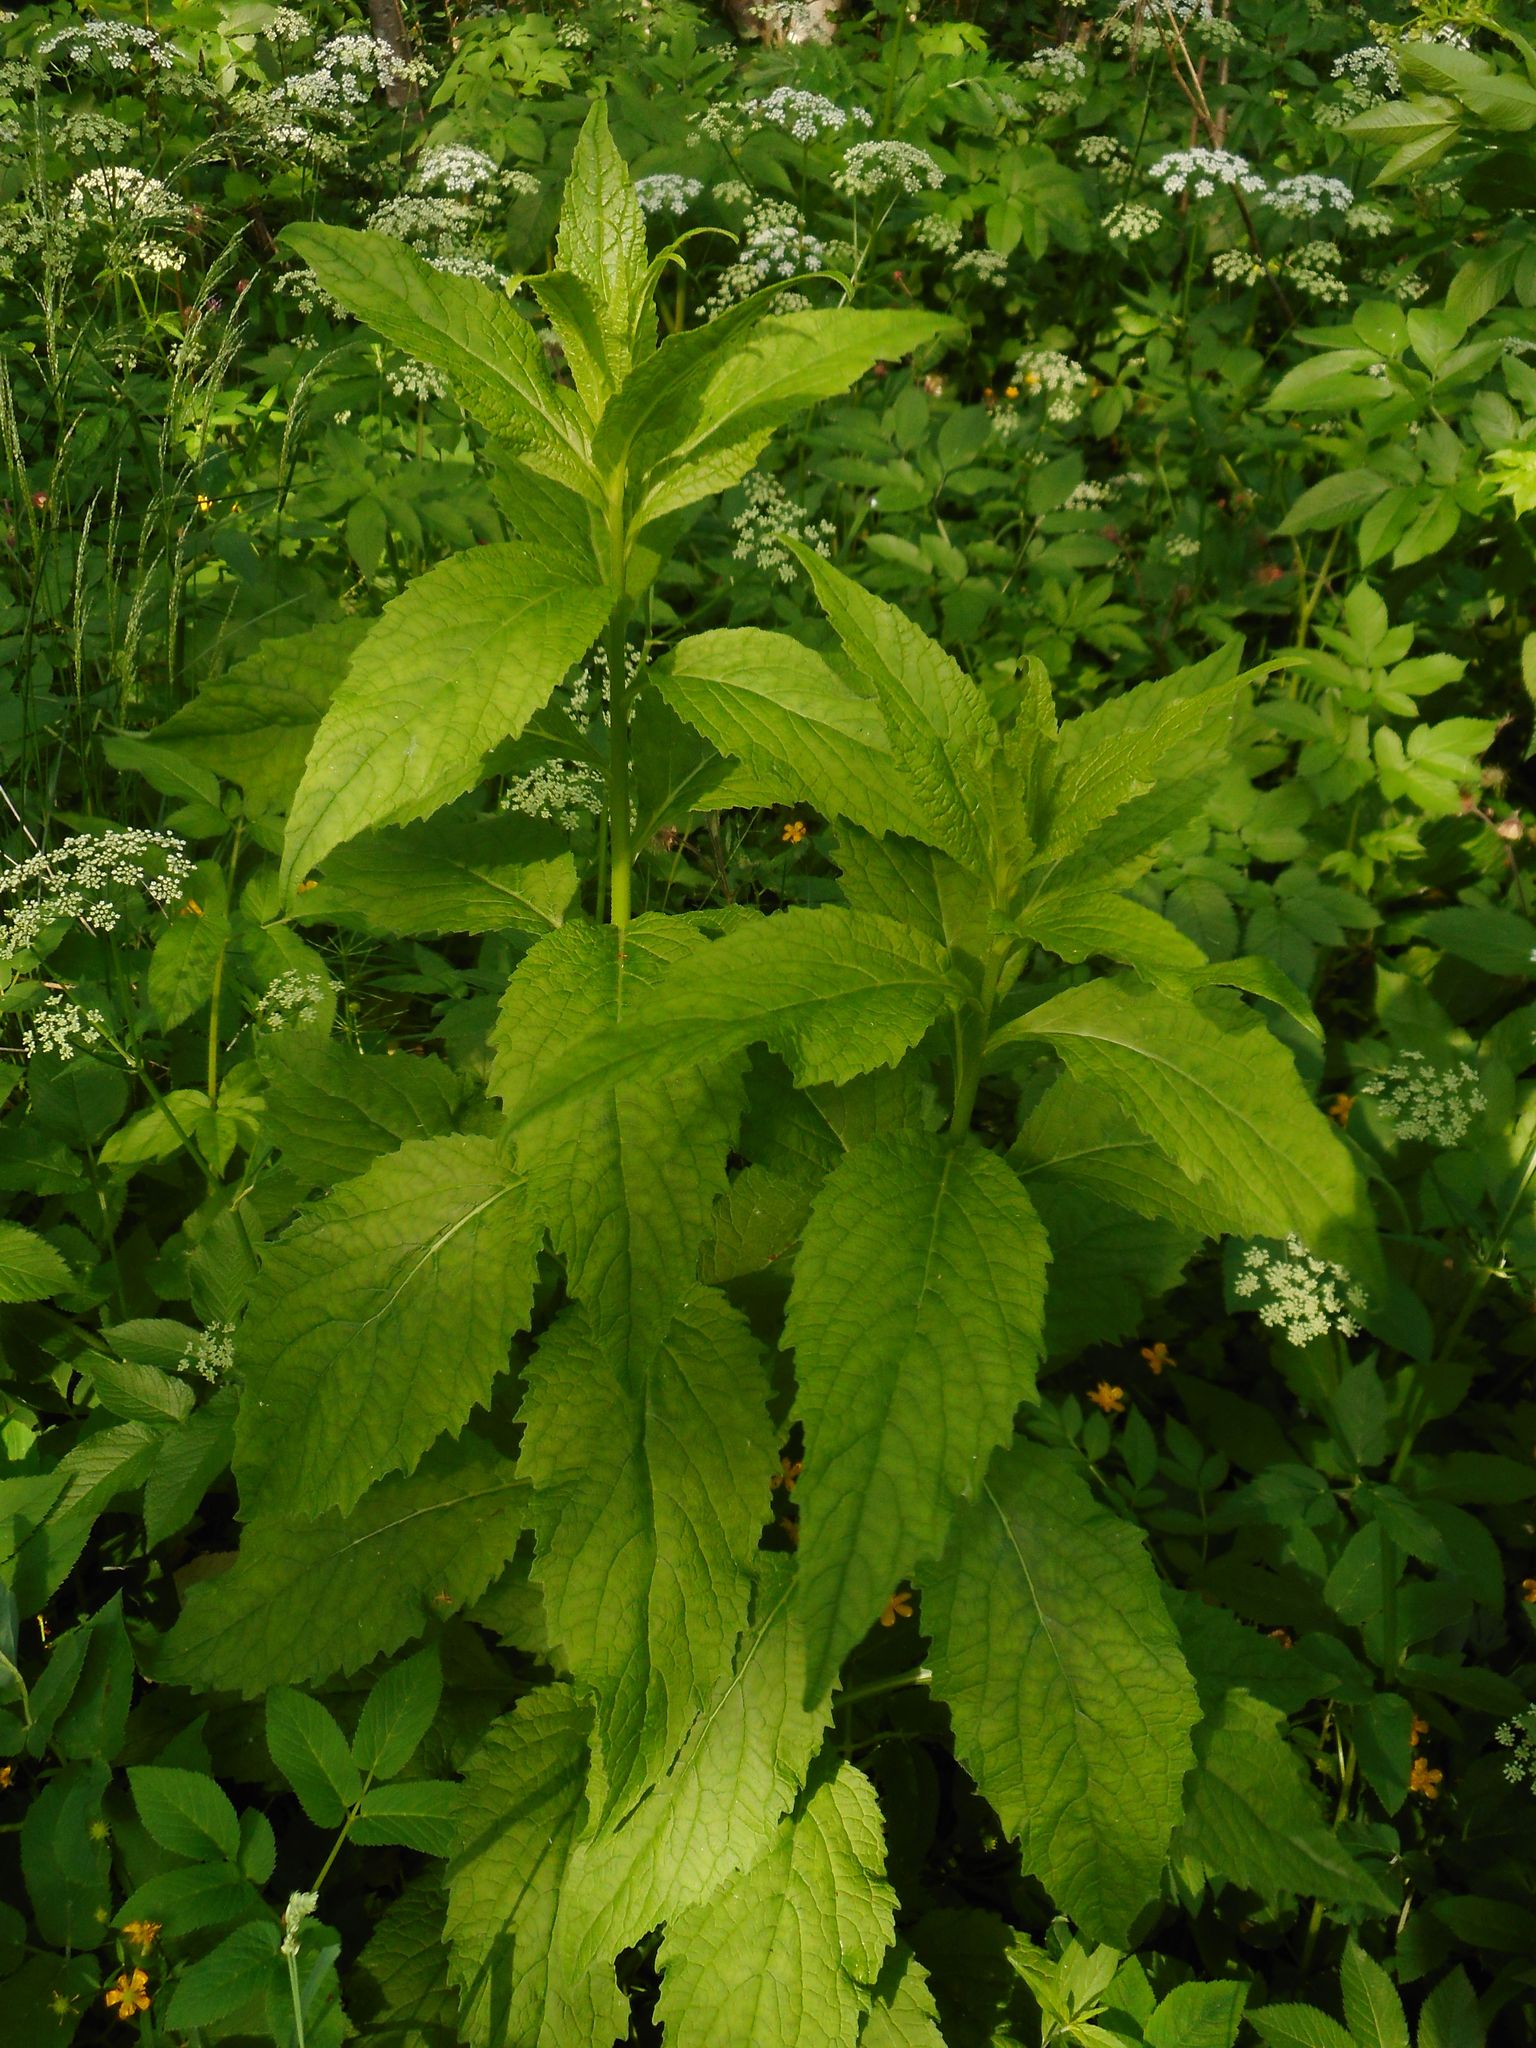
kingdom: Plantae
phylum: Tracheophyta
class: Magnoliopsida
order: Asterales
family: Campanulaceae
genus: Campanula
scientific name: Campanula latifolia
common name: Giant bellflower
